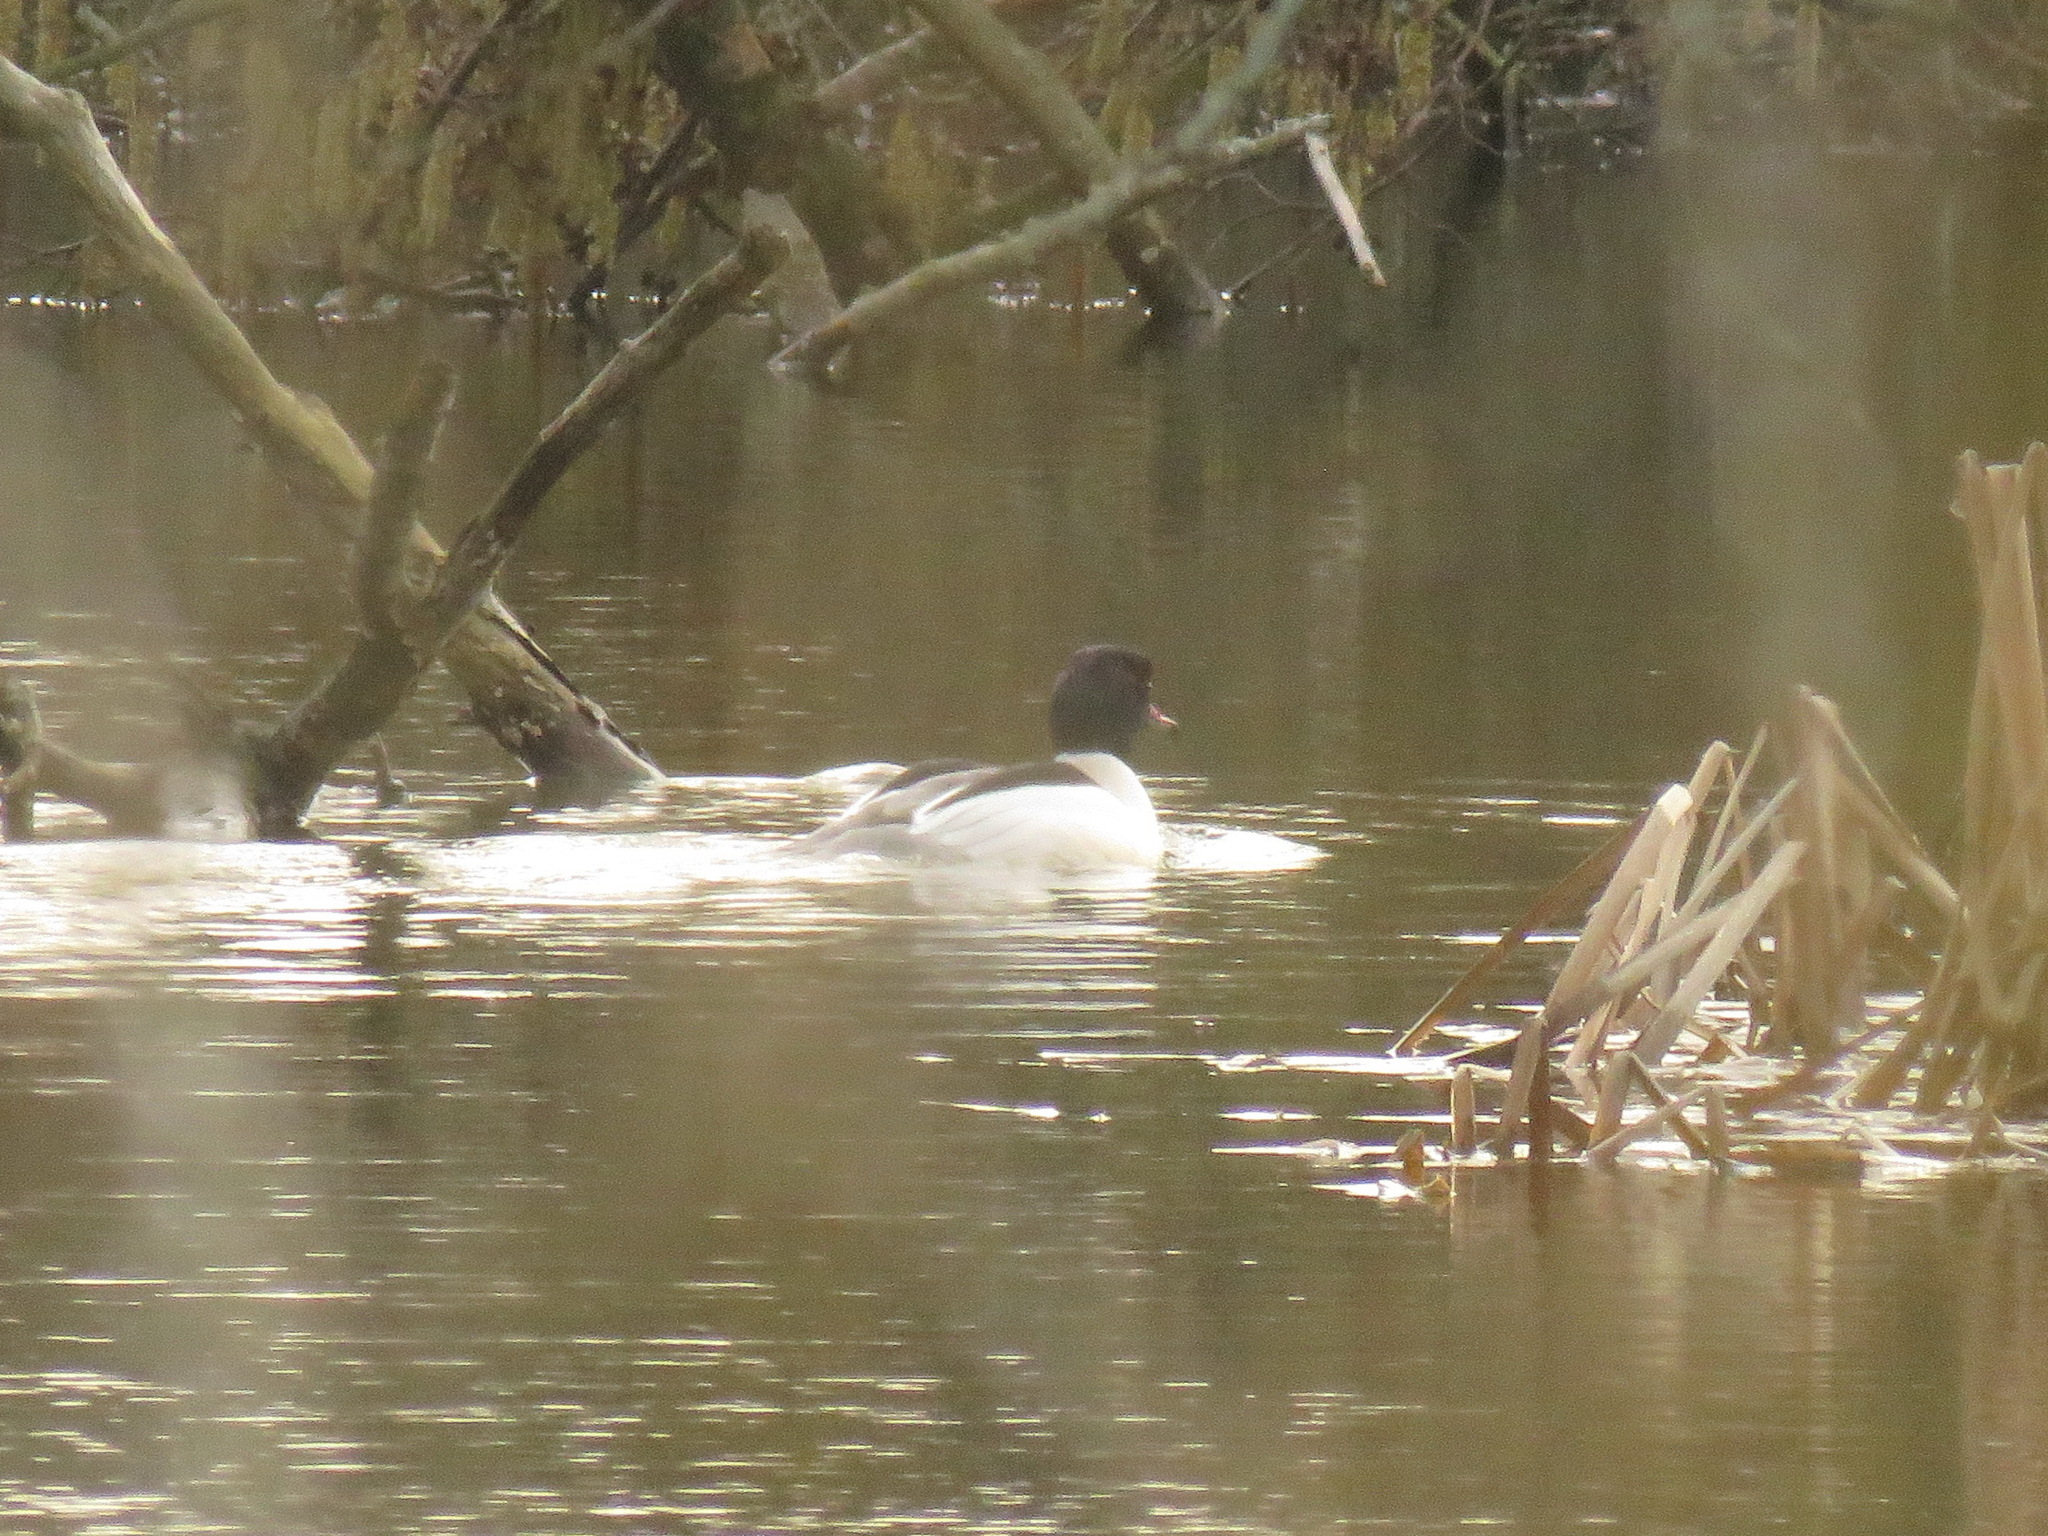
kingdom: Animalia
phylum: Chordata
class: Aves
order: Anseriformes
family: Anatidae
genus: Mergus
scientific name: Mergus merganser
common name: Common merganser
